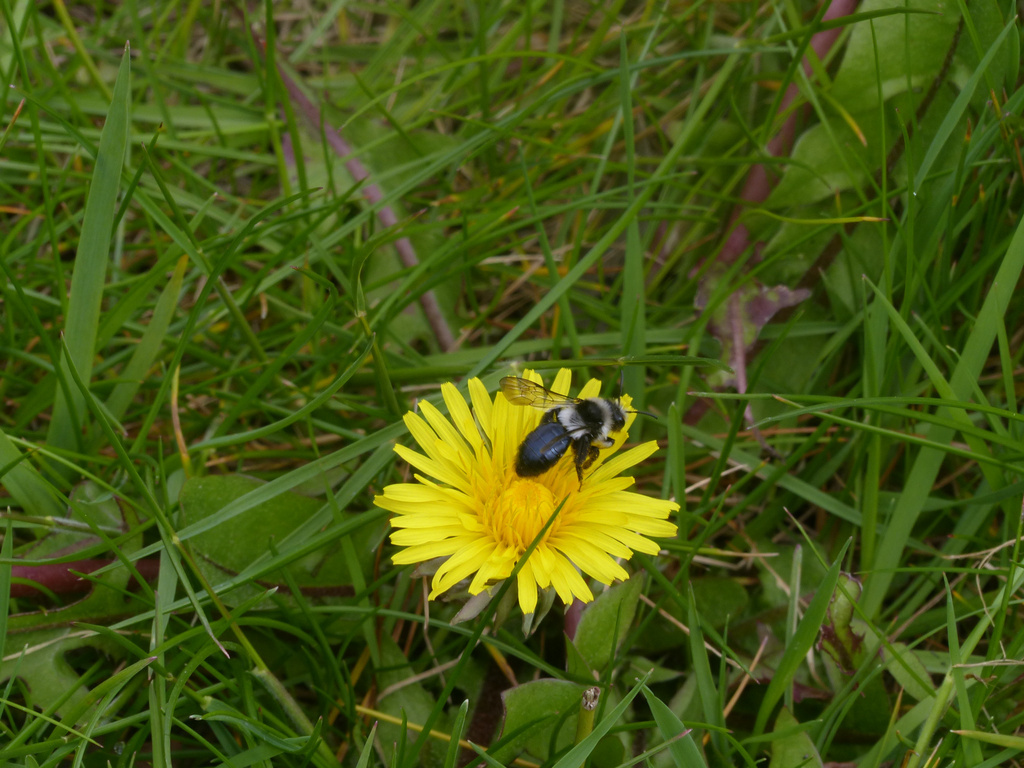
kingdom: Animalia
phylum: Arthropoda
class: Insecta
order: Hymenoptera
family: Andrenidae
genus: Andrena
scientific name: Andrena cineraria
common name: Ashy mining bee
